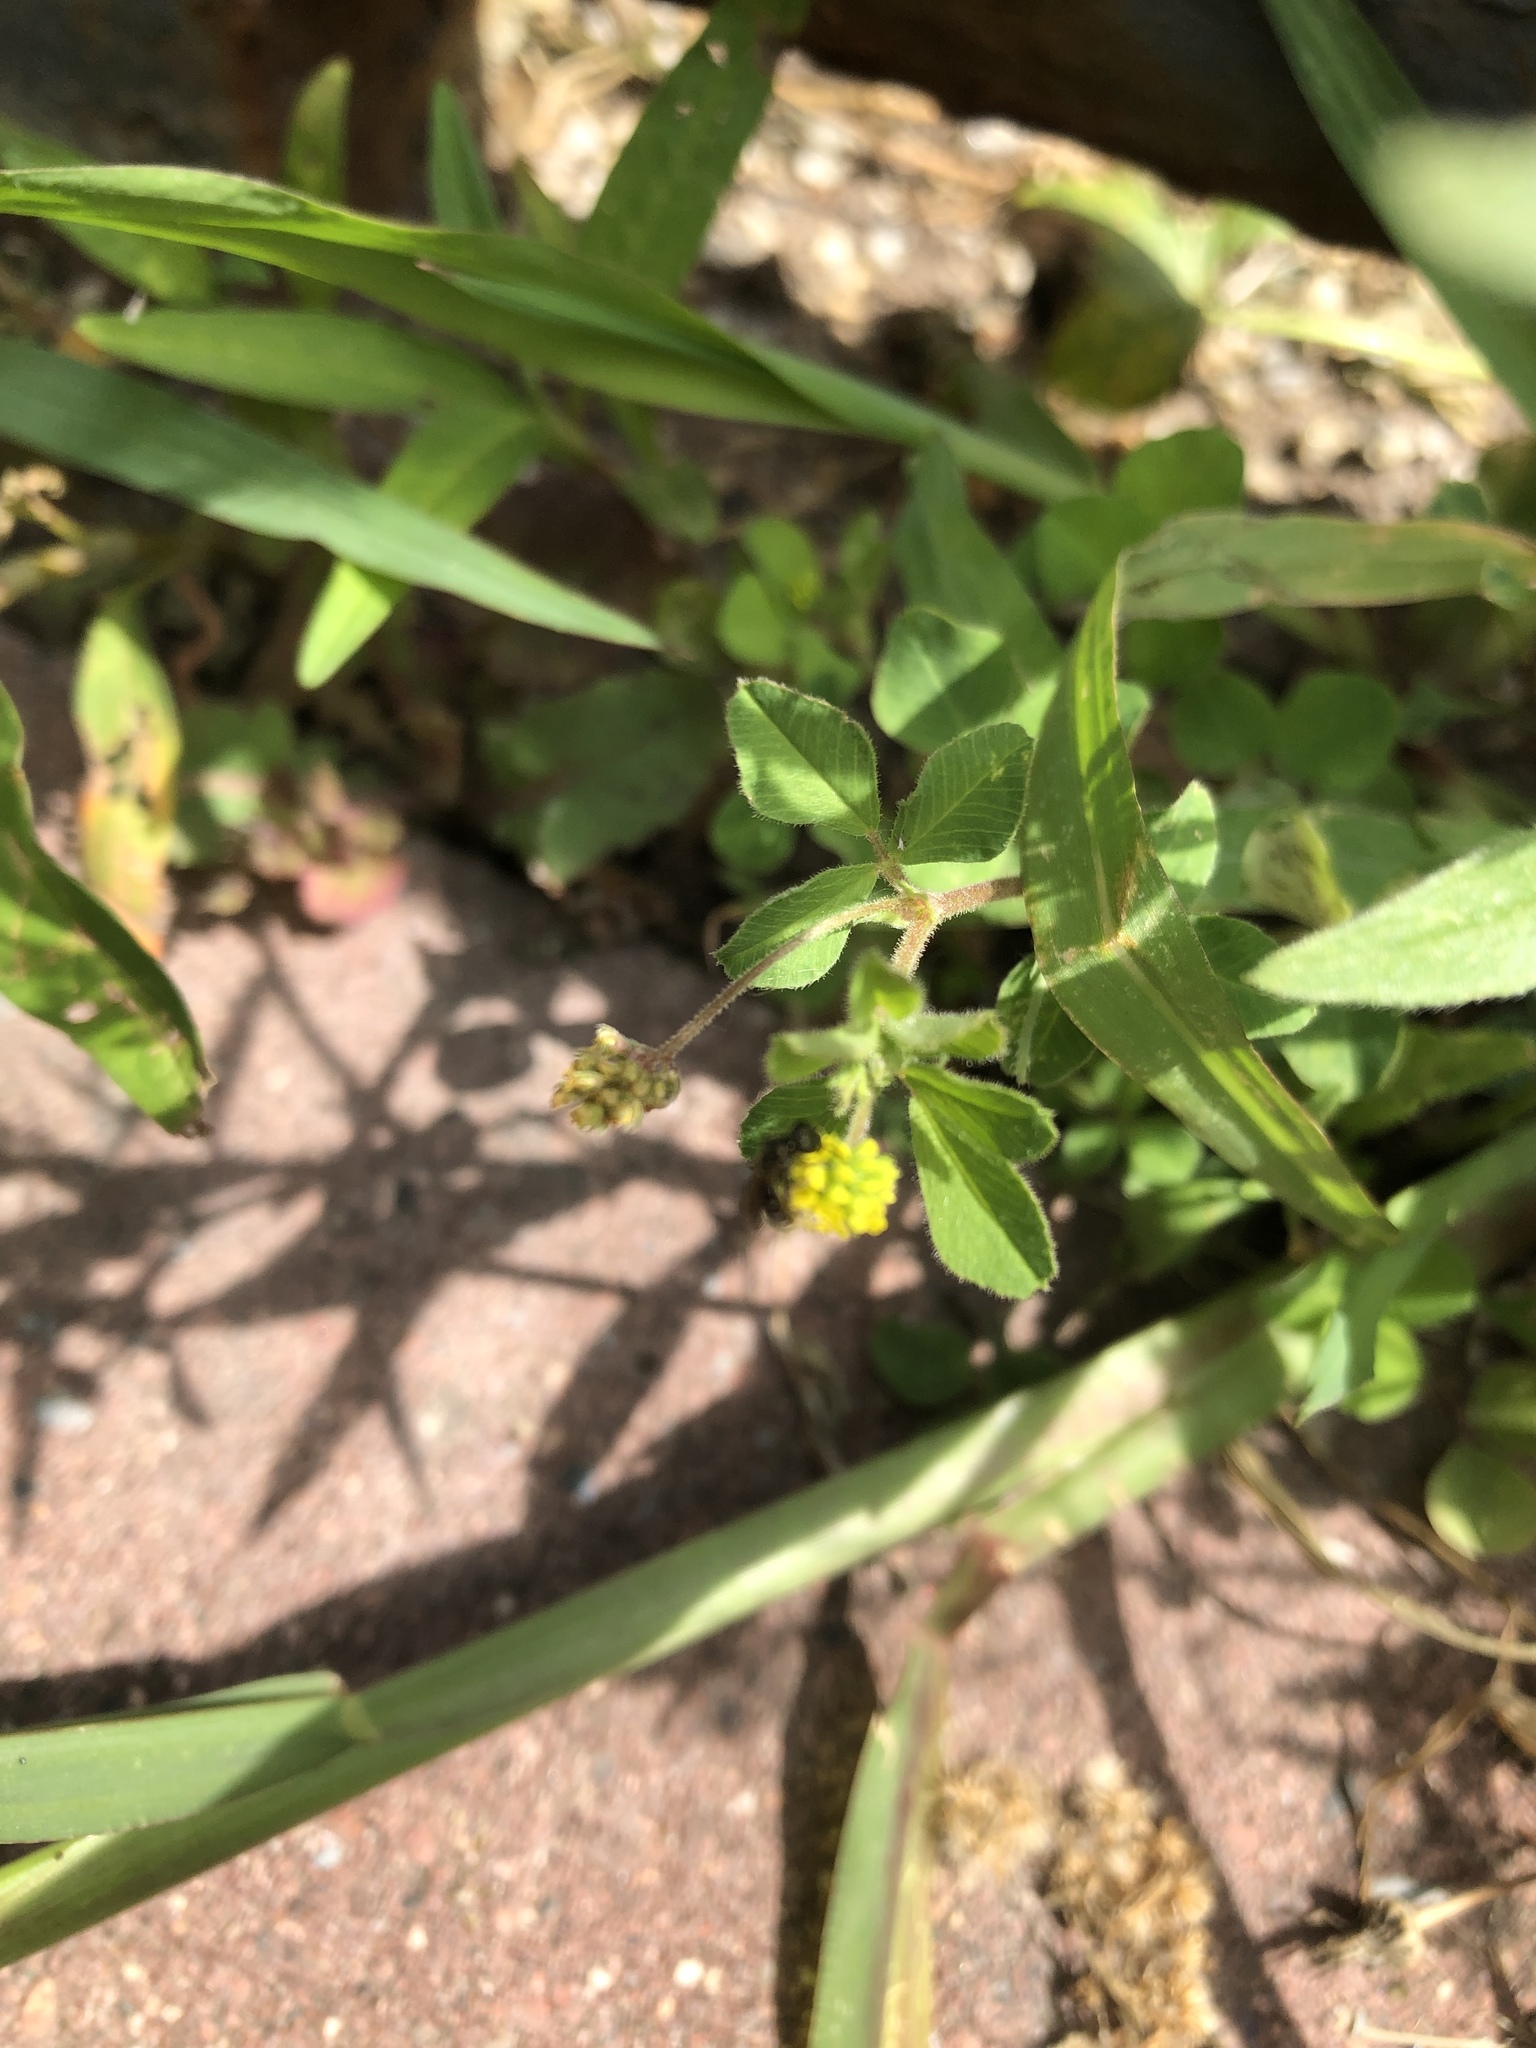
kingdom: Plantae
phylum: Tracheophyta
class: Magnoliopsida
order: Fabales
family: Fabaceae
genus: Medicago
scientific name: Medicago lupulina
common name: Black medick
